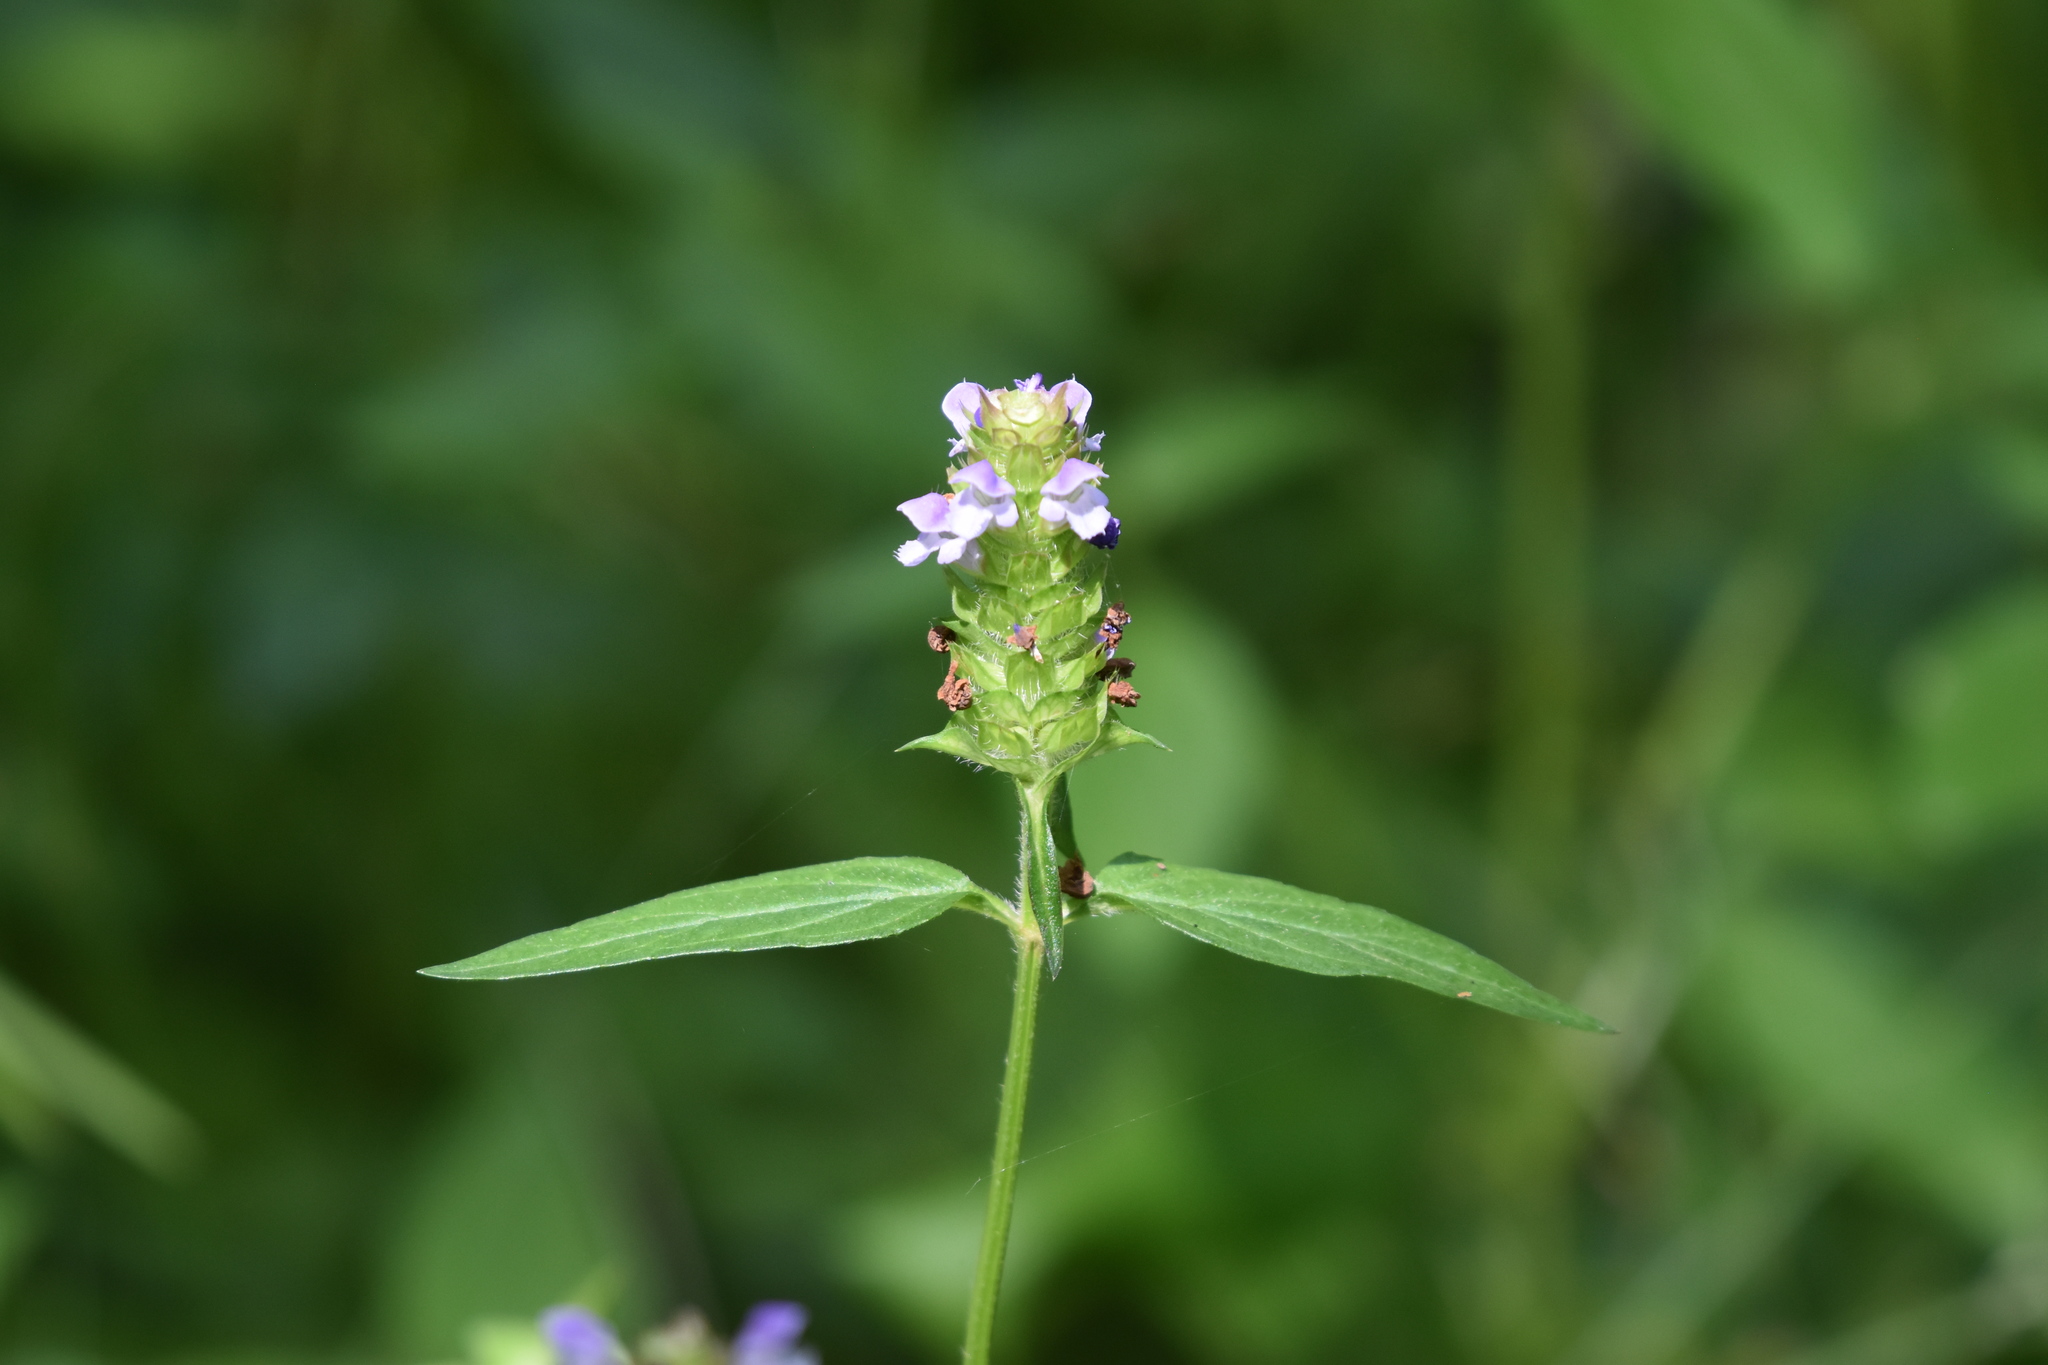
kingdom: Plantae
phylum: Tracheophyta
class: Magnoliopsida
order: Lamiales
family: Lamiaceae
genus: Prunella
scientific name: Prunella vulgaris
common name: Heal-all
